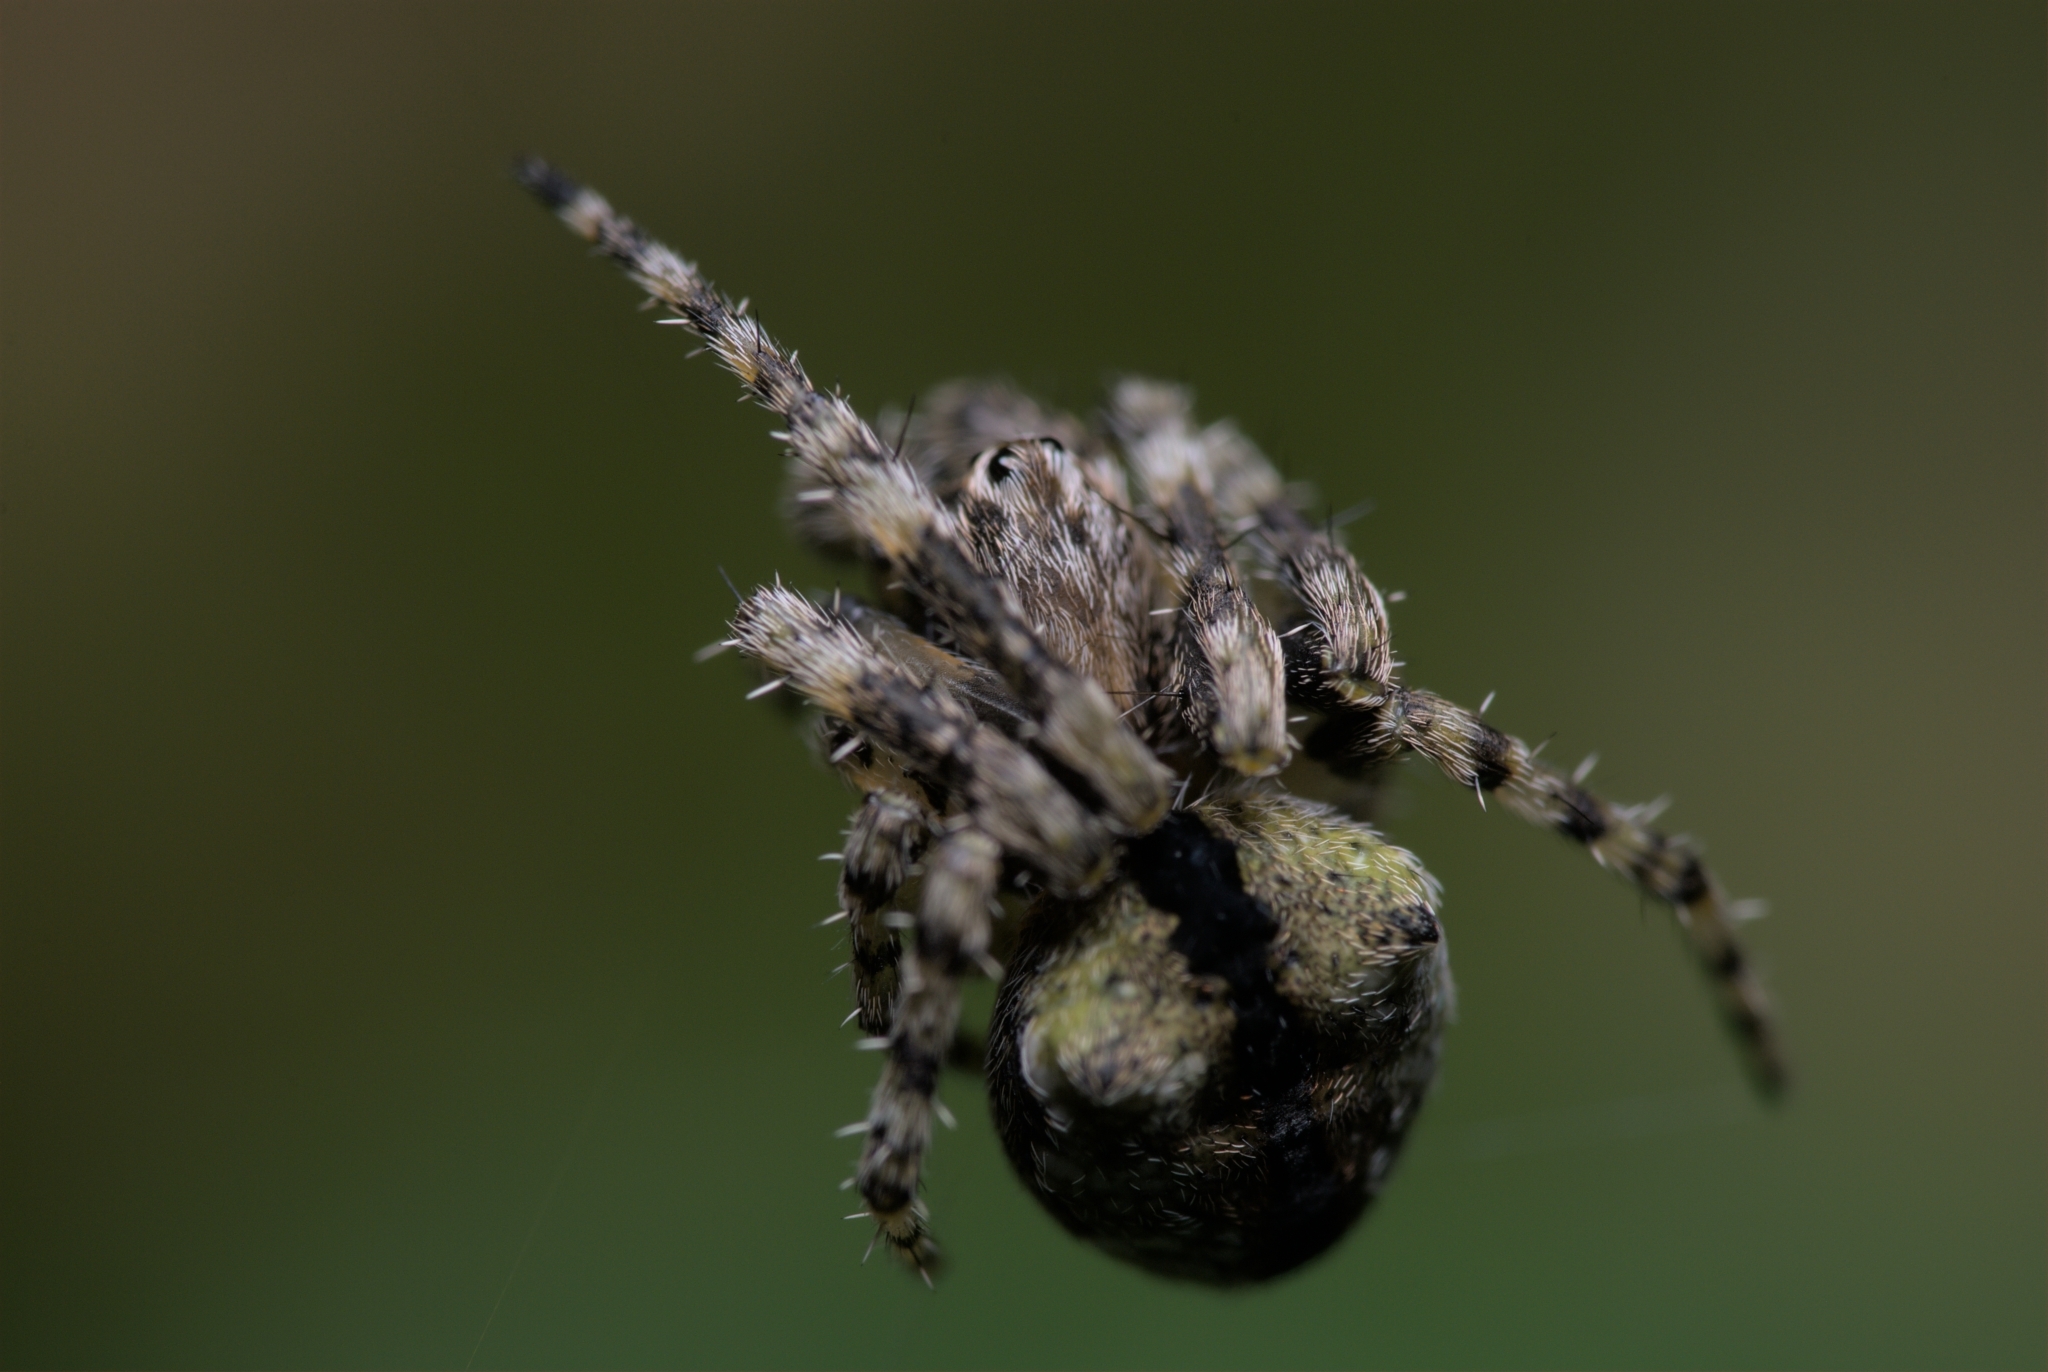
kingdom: Animalia
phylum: Arthropoda
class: Arachnida
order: Araneae
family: Araneidae
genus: Gibbaranea
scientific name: Gibbaranea gibbosa
